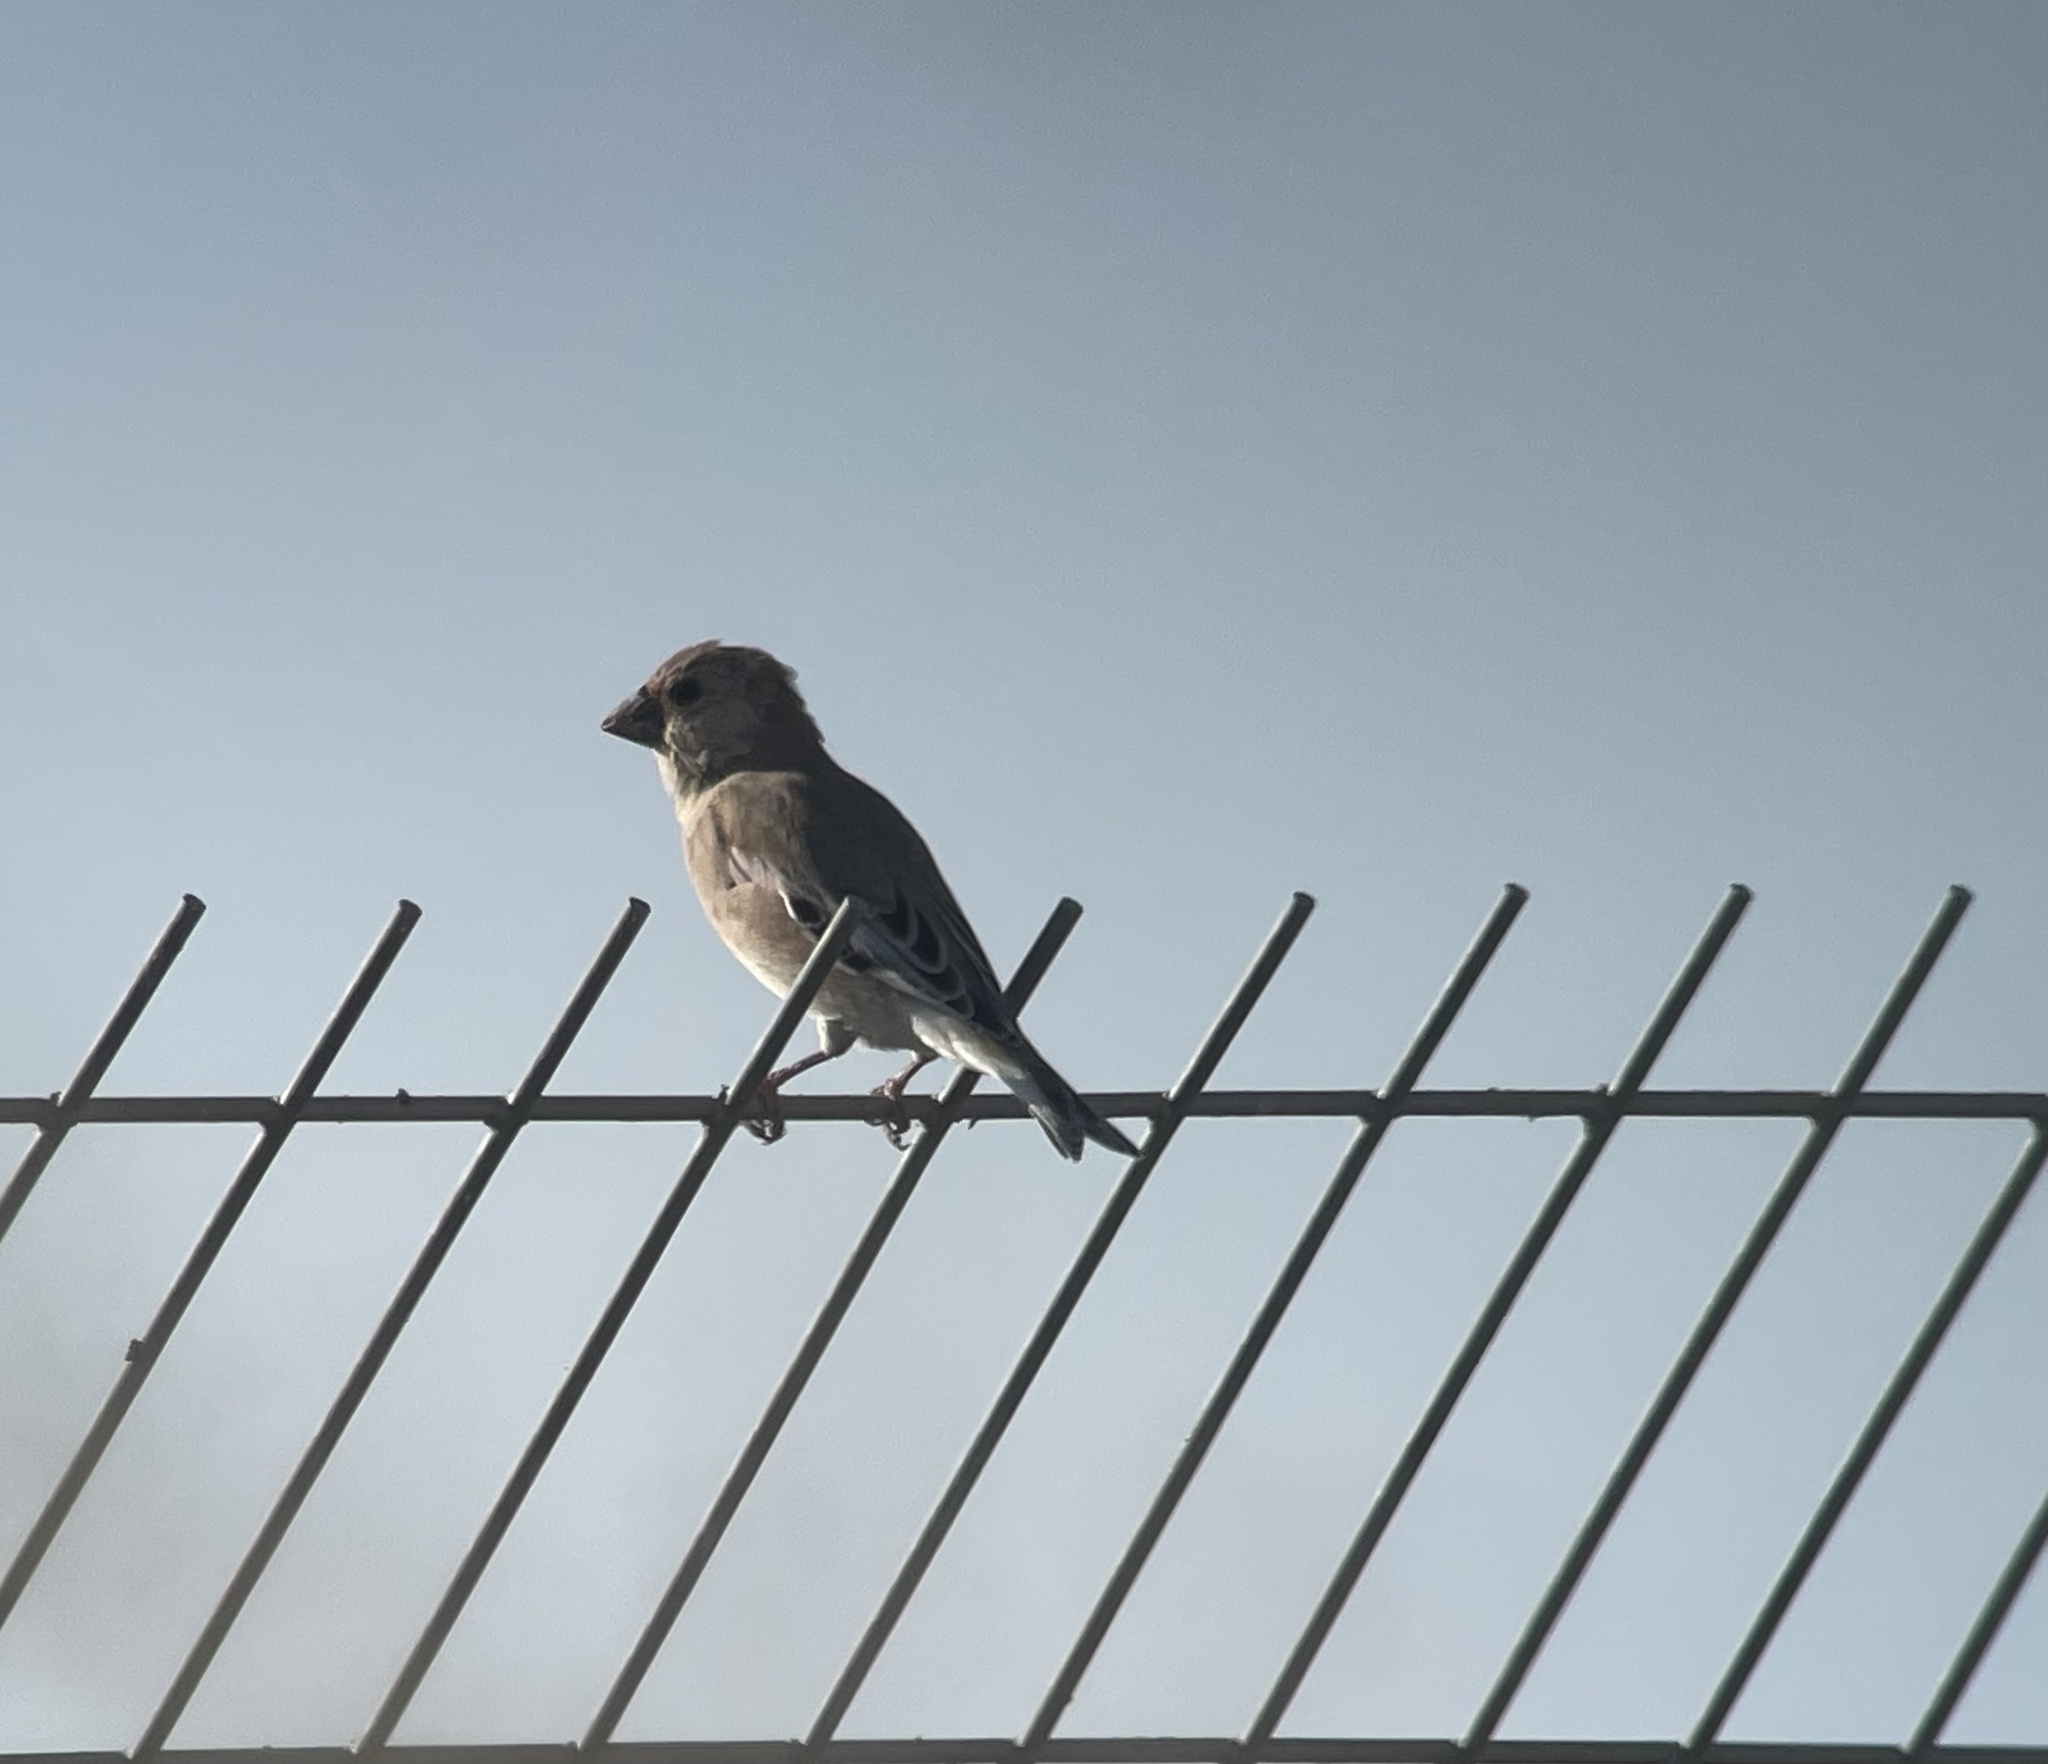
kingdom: Animalia
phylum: Chordata
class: Aves
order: Passeriformes
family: Fringillidae
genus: Rhodospiza
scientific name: Rhodospiza obsoleta
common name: Desert finch
